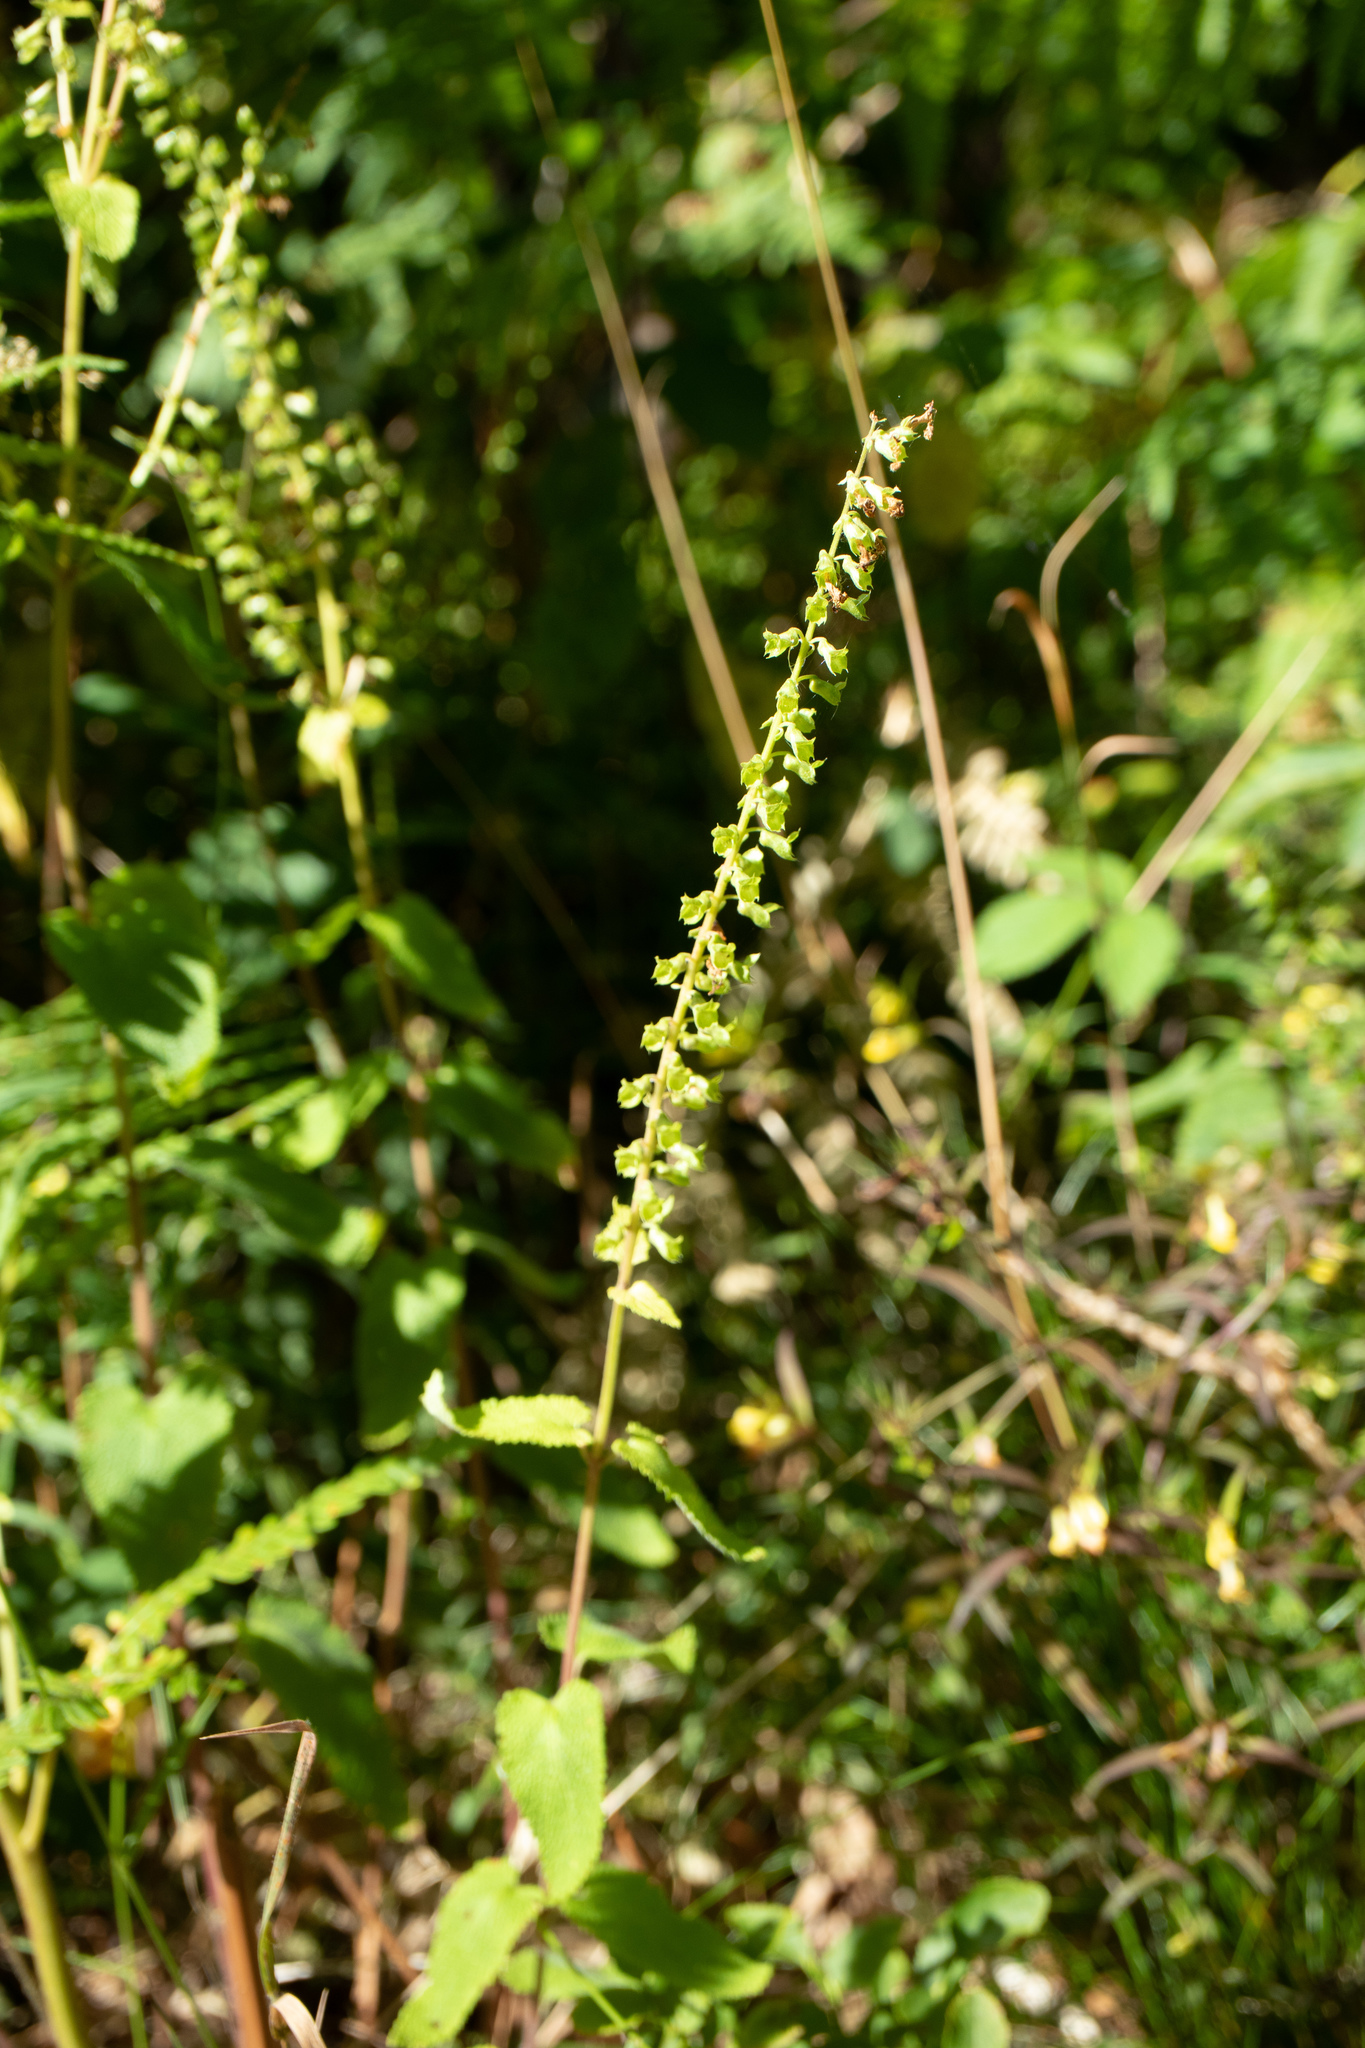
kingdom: Plantae
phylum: Tracheophyta
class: Magnoliopsida
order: Lamiales
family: Lamiaceae
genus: Teucrium
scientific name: Teucrium scorodonia
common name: Woodland germander
